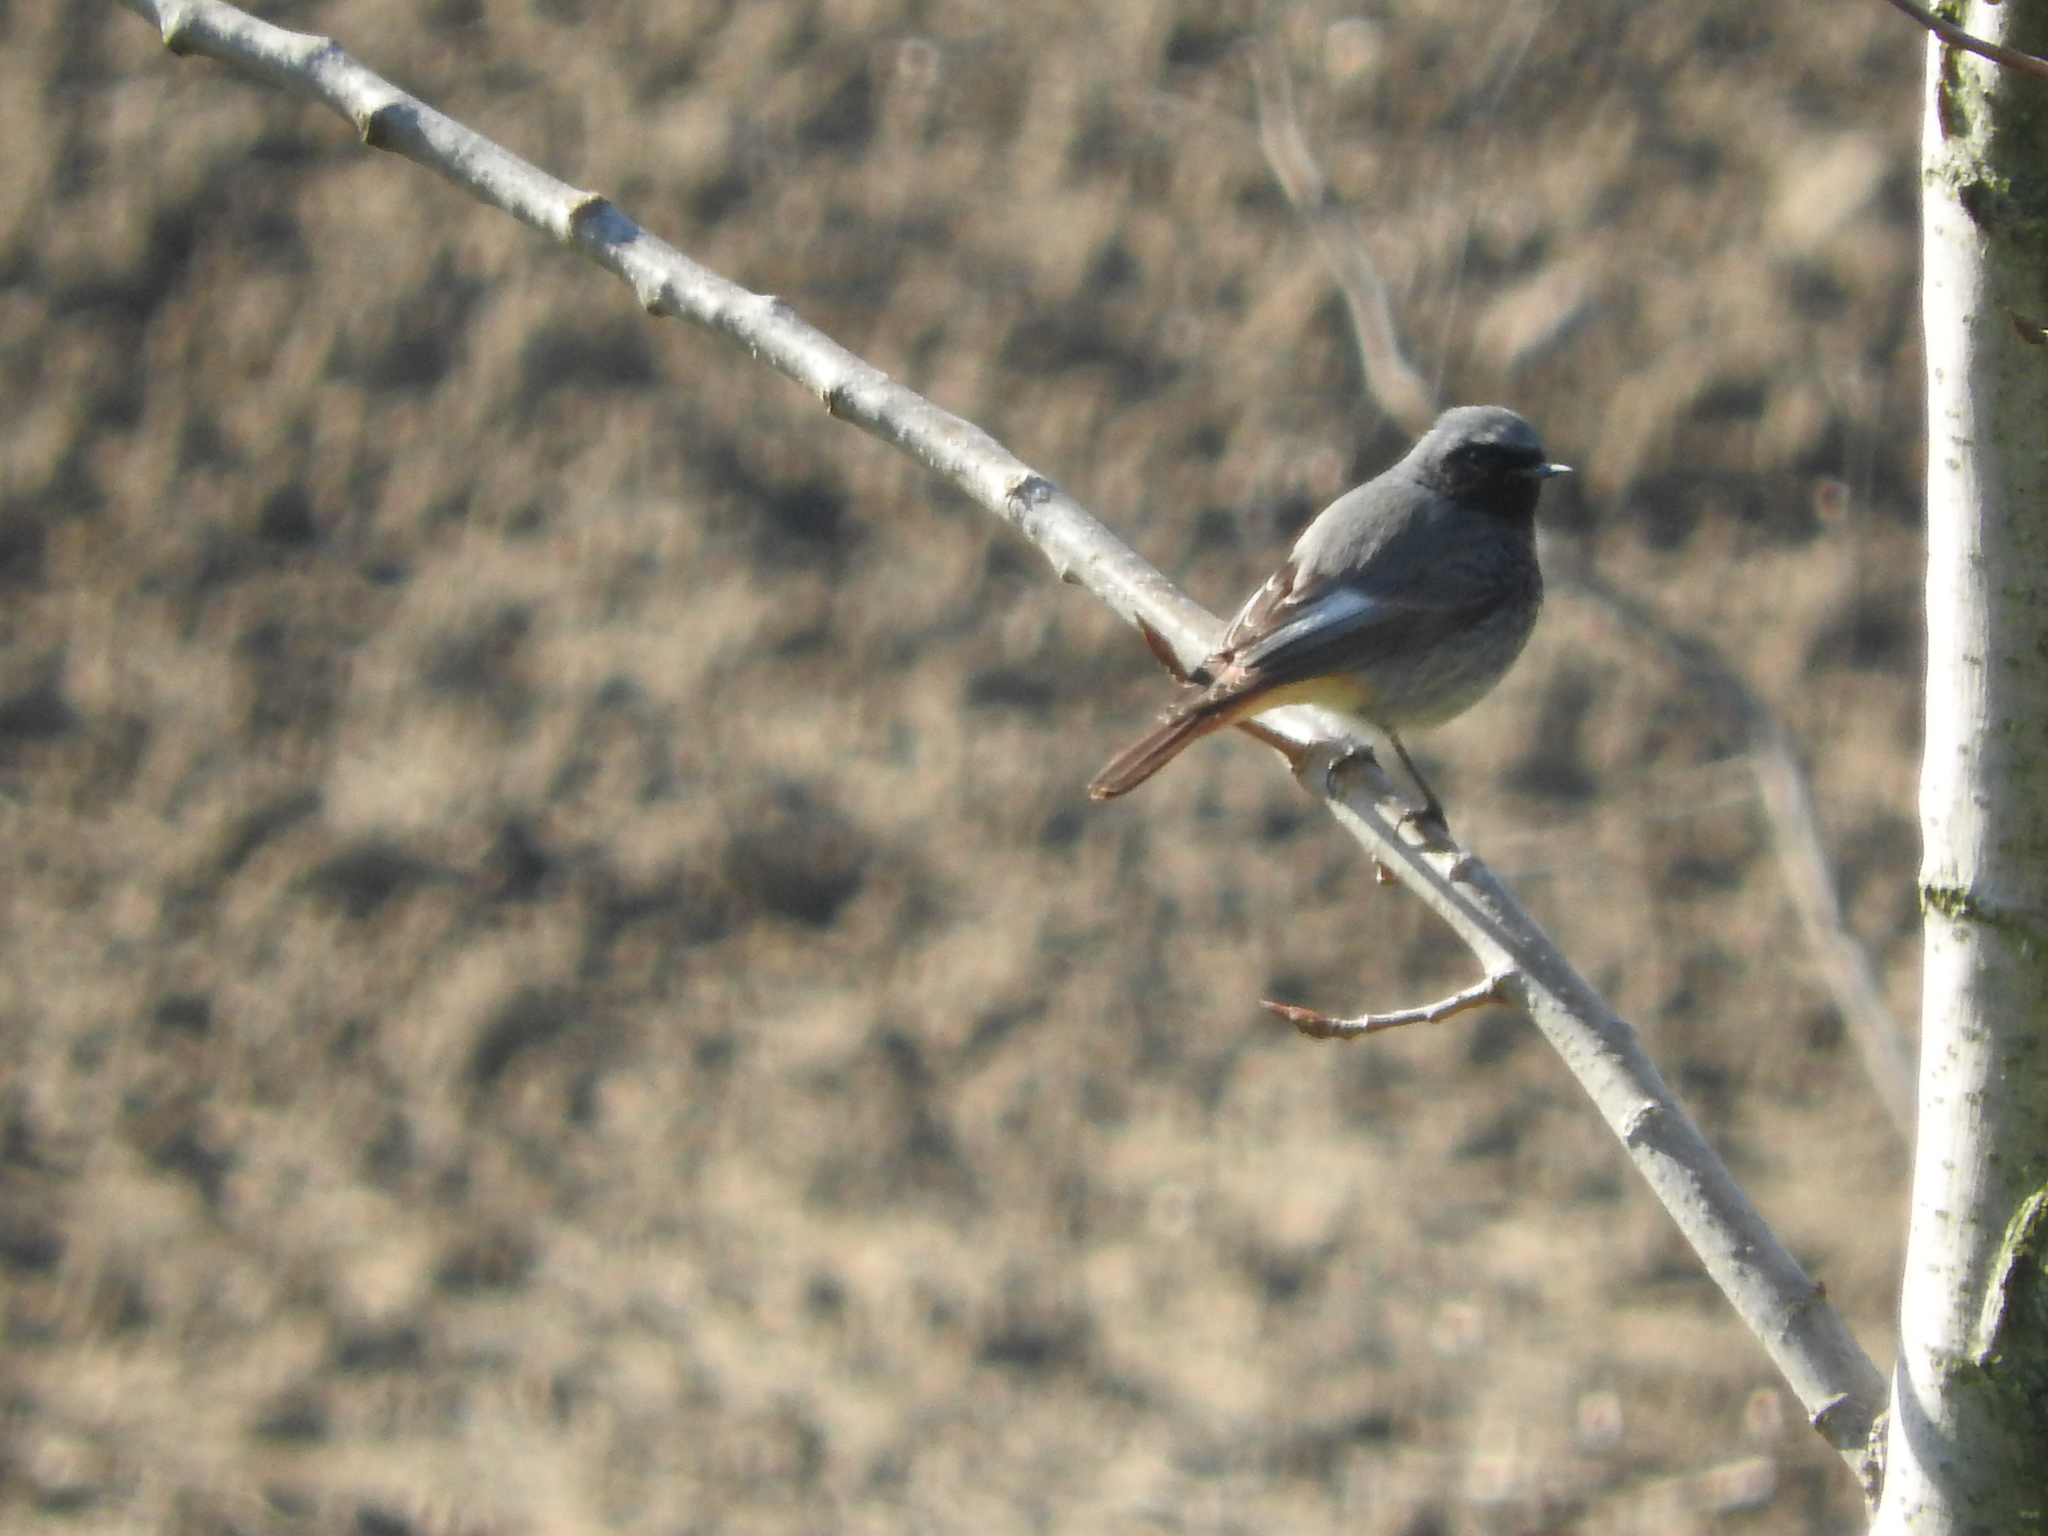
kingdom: Animalia
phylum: Chordata
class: Aves
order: Passeriformes
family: Muscicapidae
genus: Phoenicurus
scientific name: Phoenicurus ochruros
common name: Black redstart
